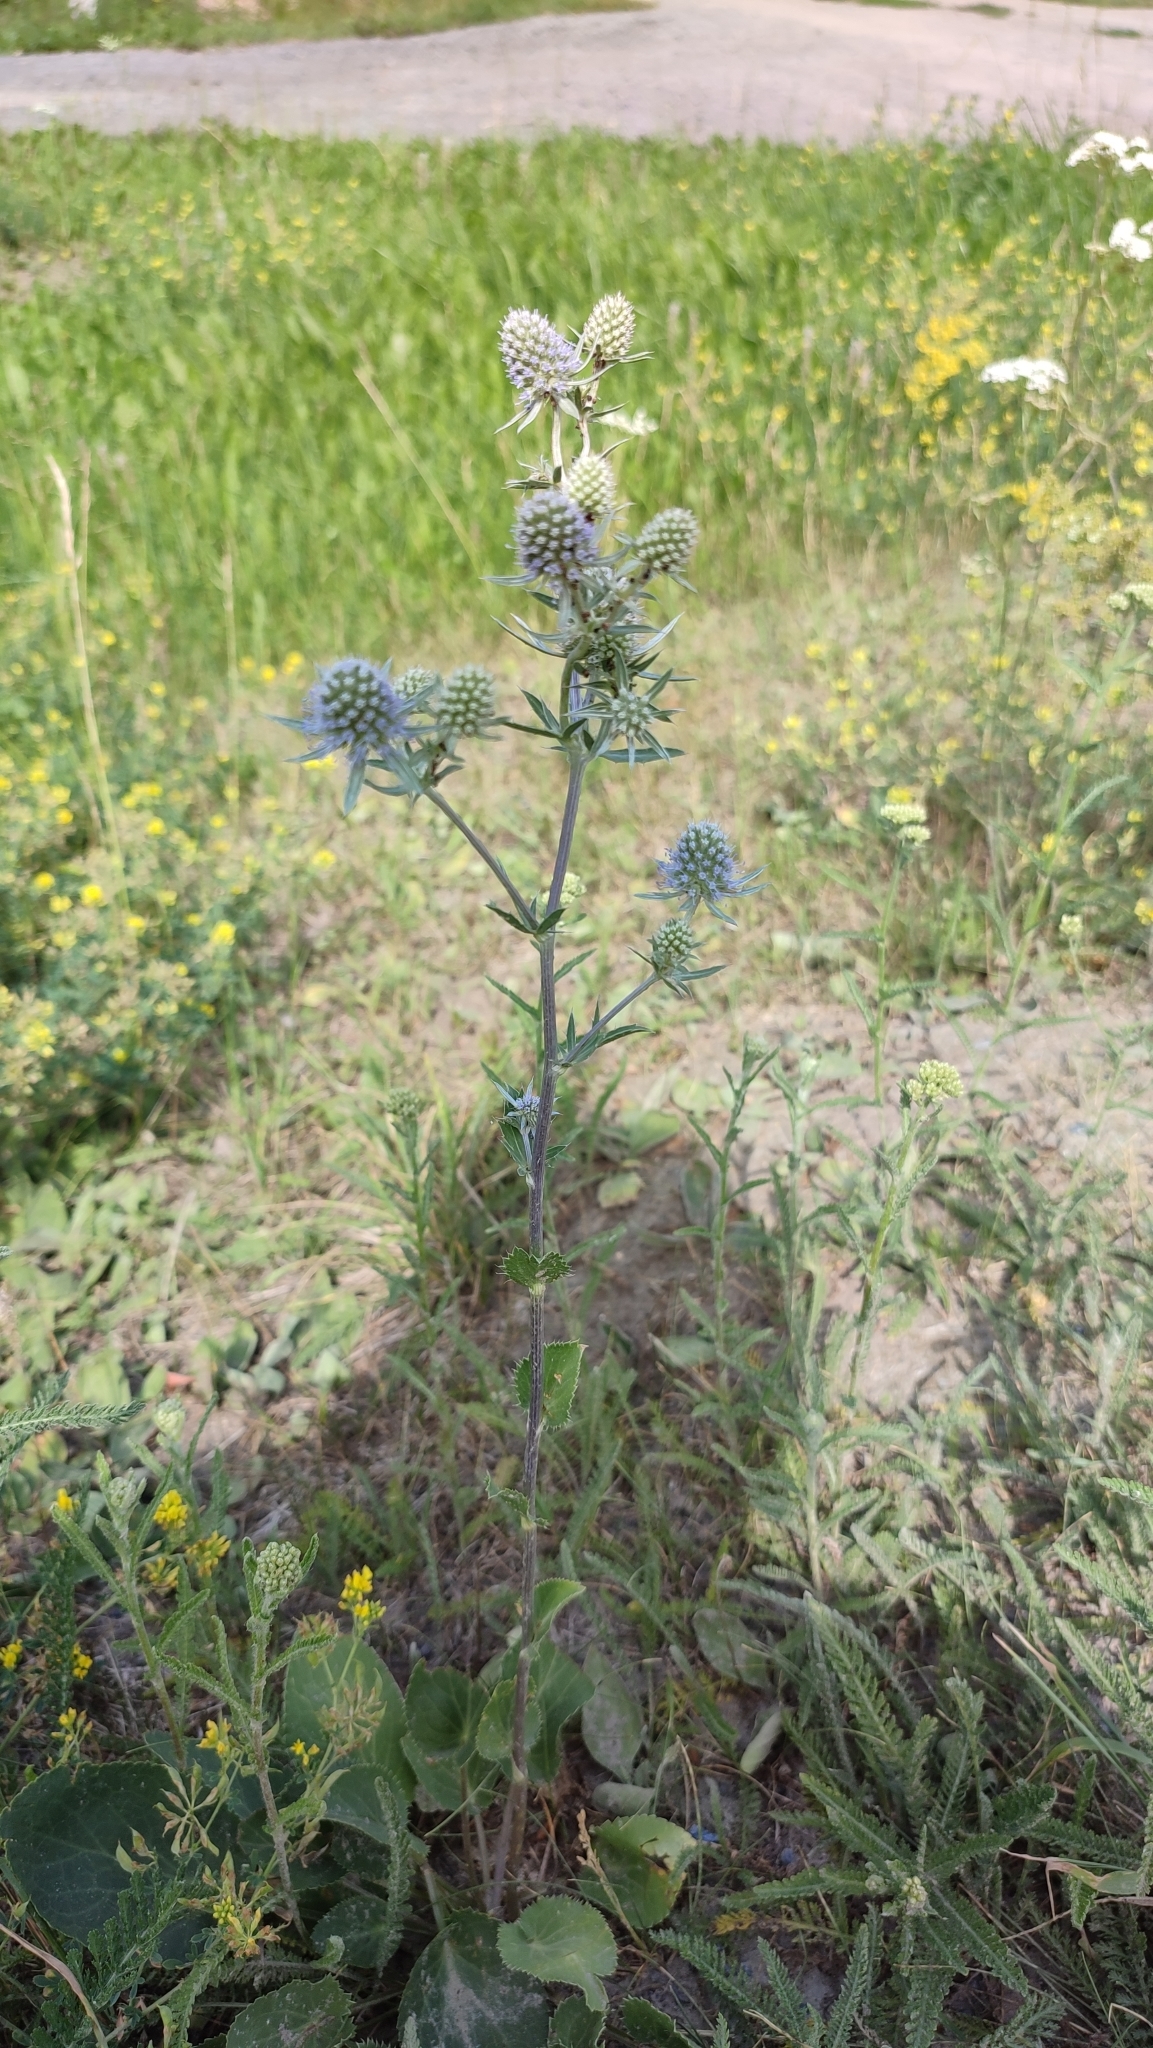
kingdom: Plantae
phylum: Tracheophyta
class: Magnoliopsida
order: Apiales
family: Apiaceae
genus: Eryngium
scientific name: Eryngium planum
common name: Blue eryngo
